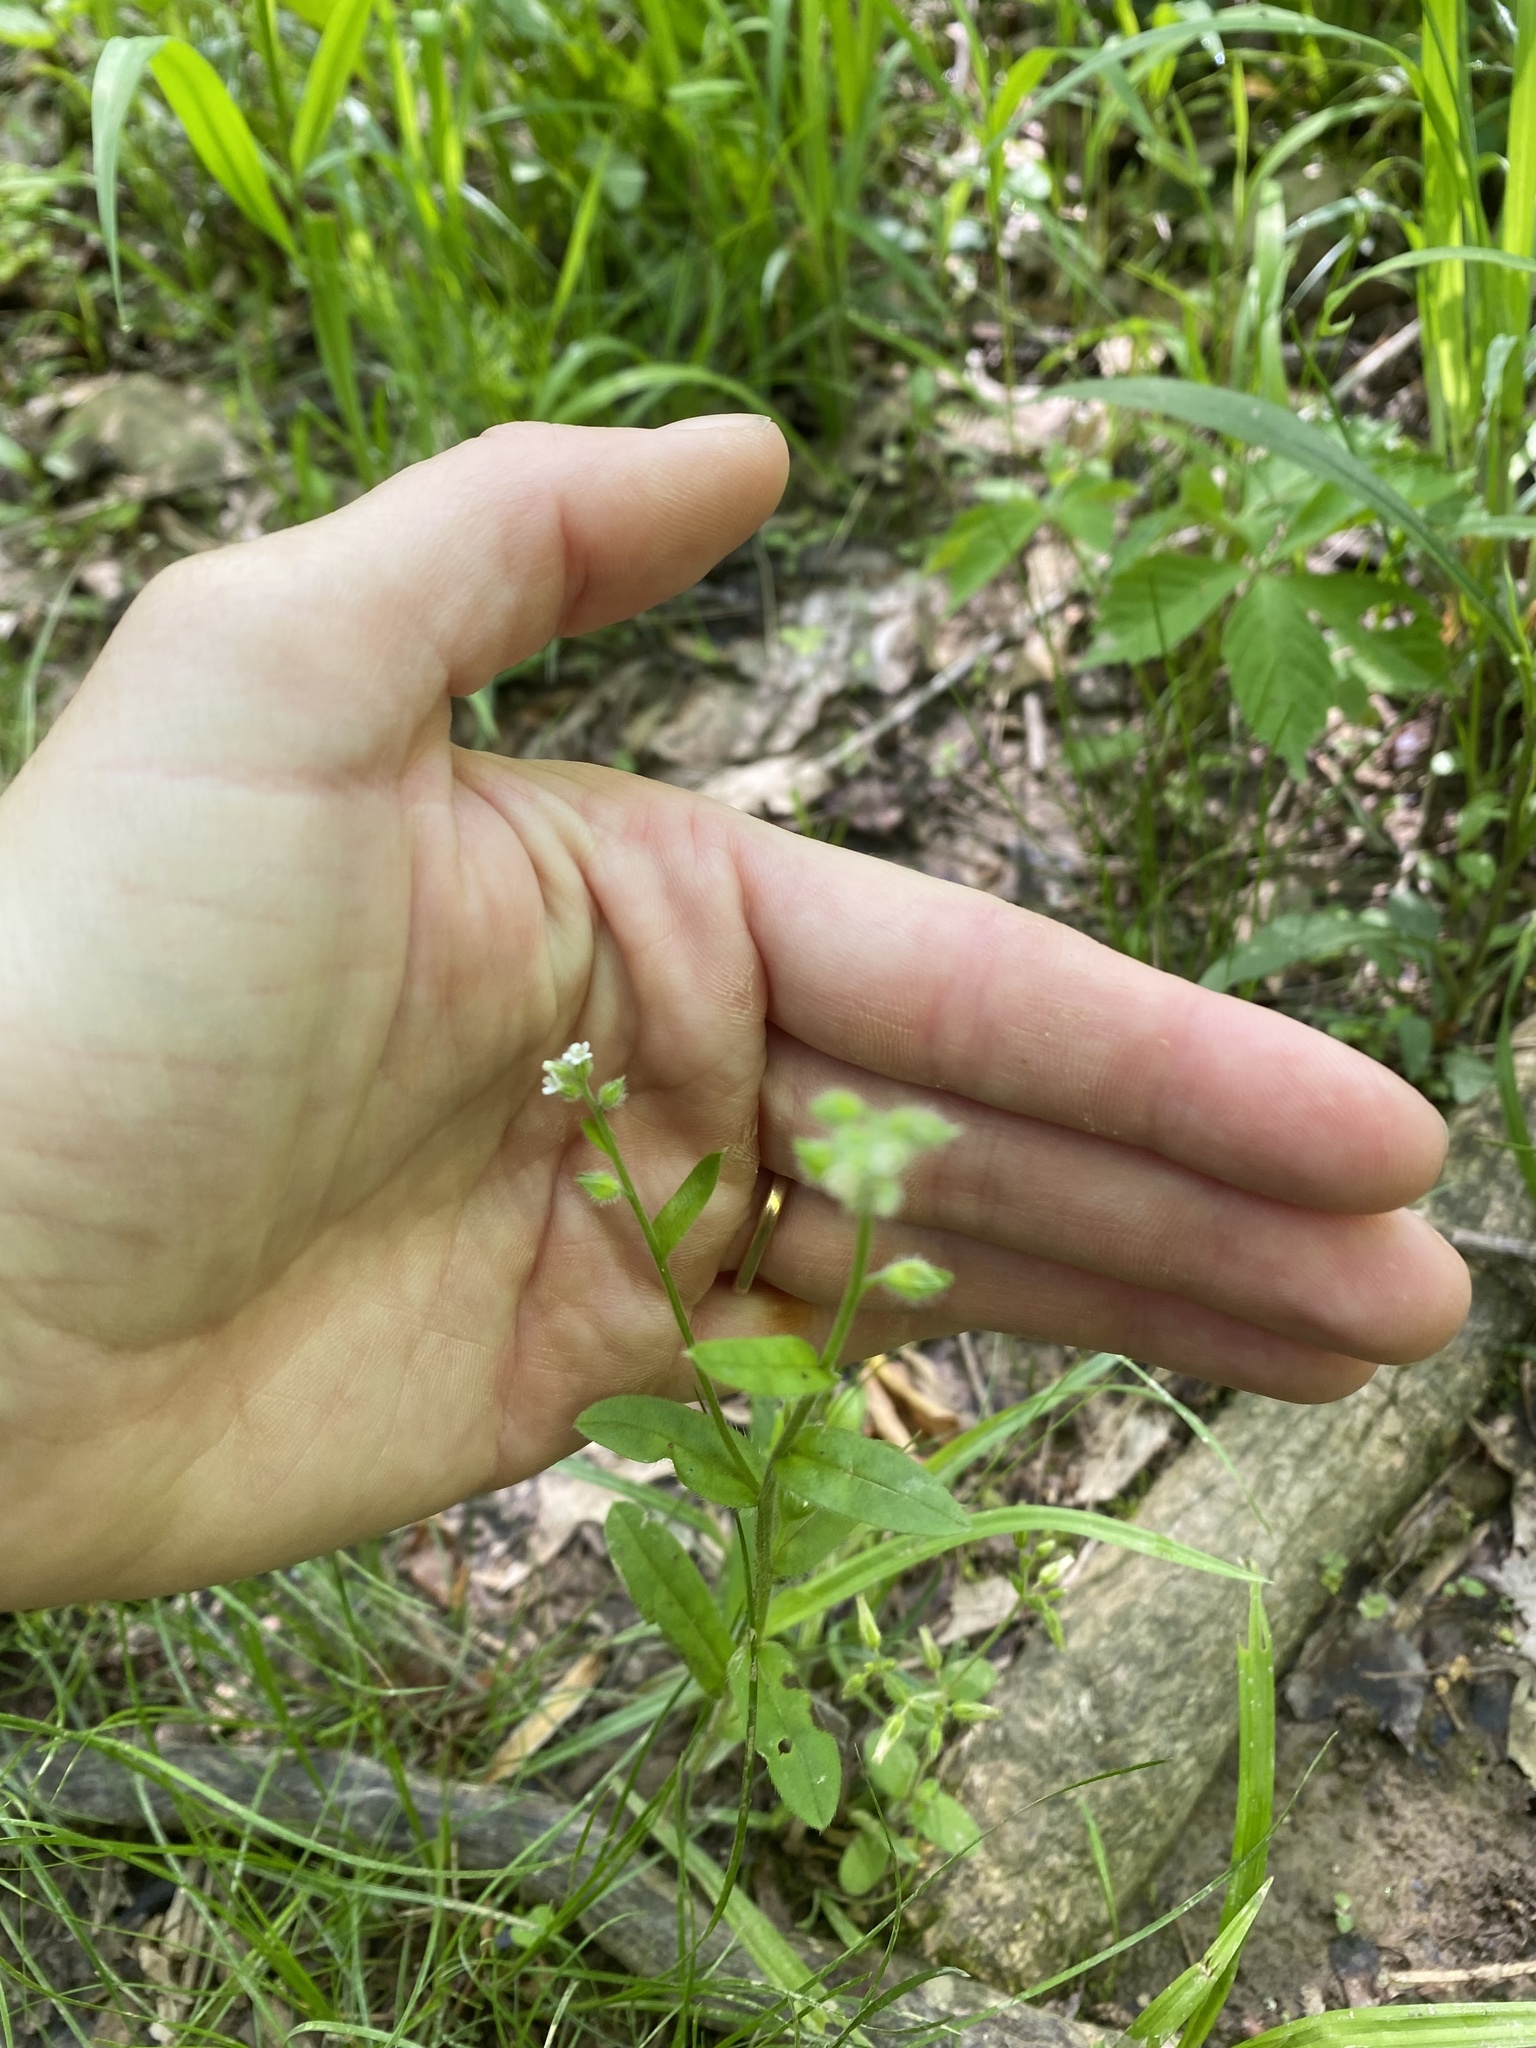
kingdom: Plantae
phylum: Tracheophyta
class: Magnoliopsida
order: Dipsacales
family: Caprifoliaceae
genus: Valerianella
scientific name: Valerianella radiata
